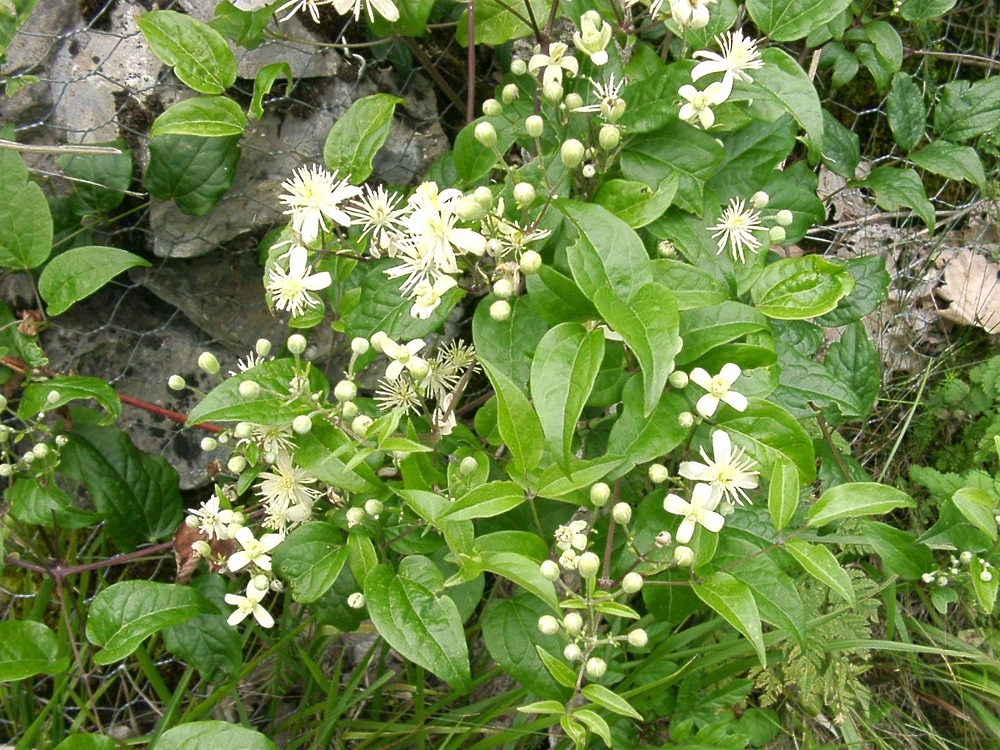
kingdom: Plantae
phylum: Tracheophyta
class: Magnoliopsida
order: Ranunculales
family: Ranunculaceae
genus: Clematis
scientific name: Clematis vitalba
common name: Evergreen clematis
